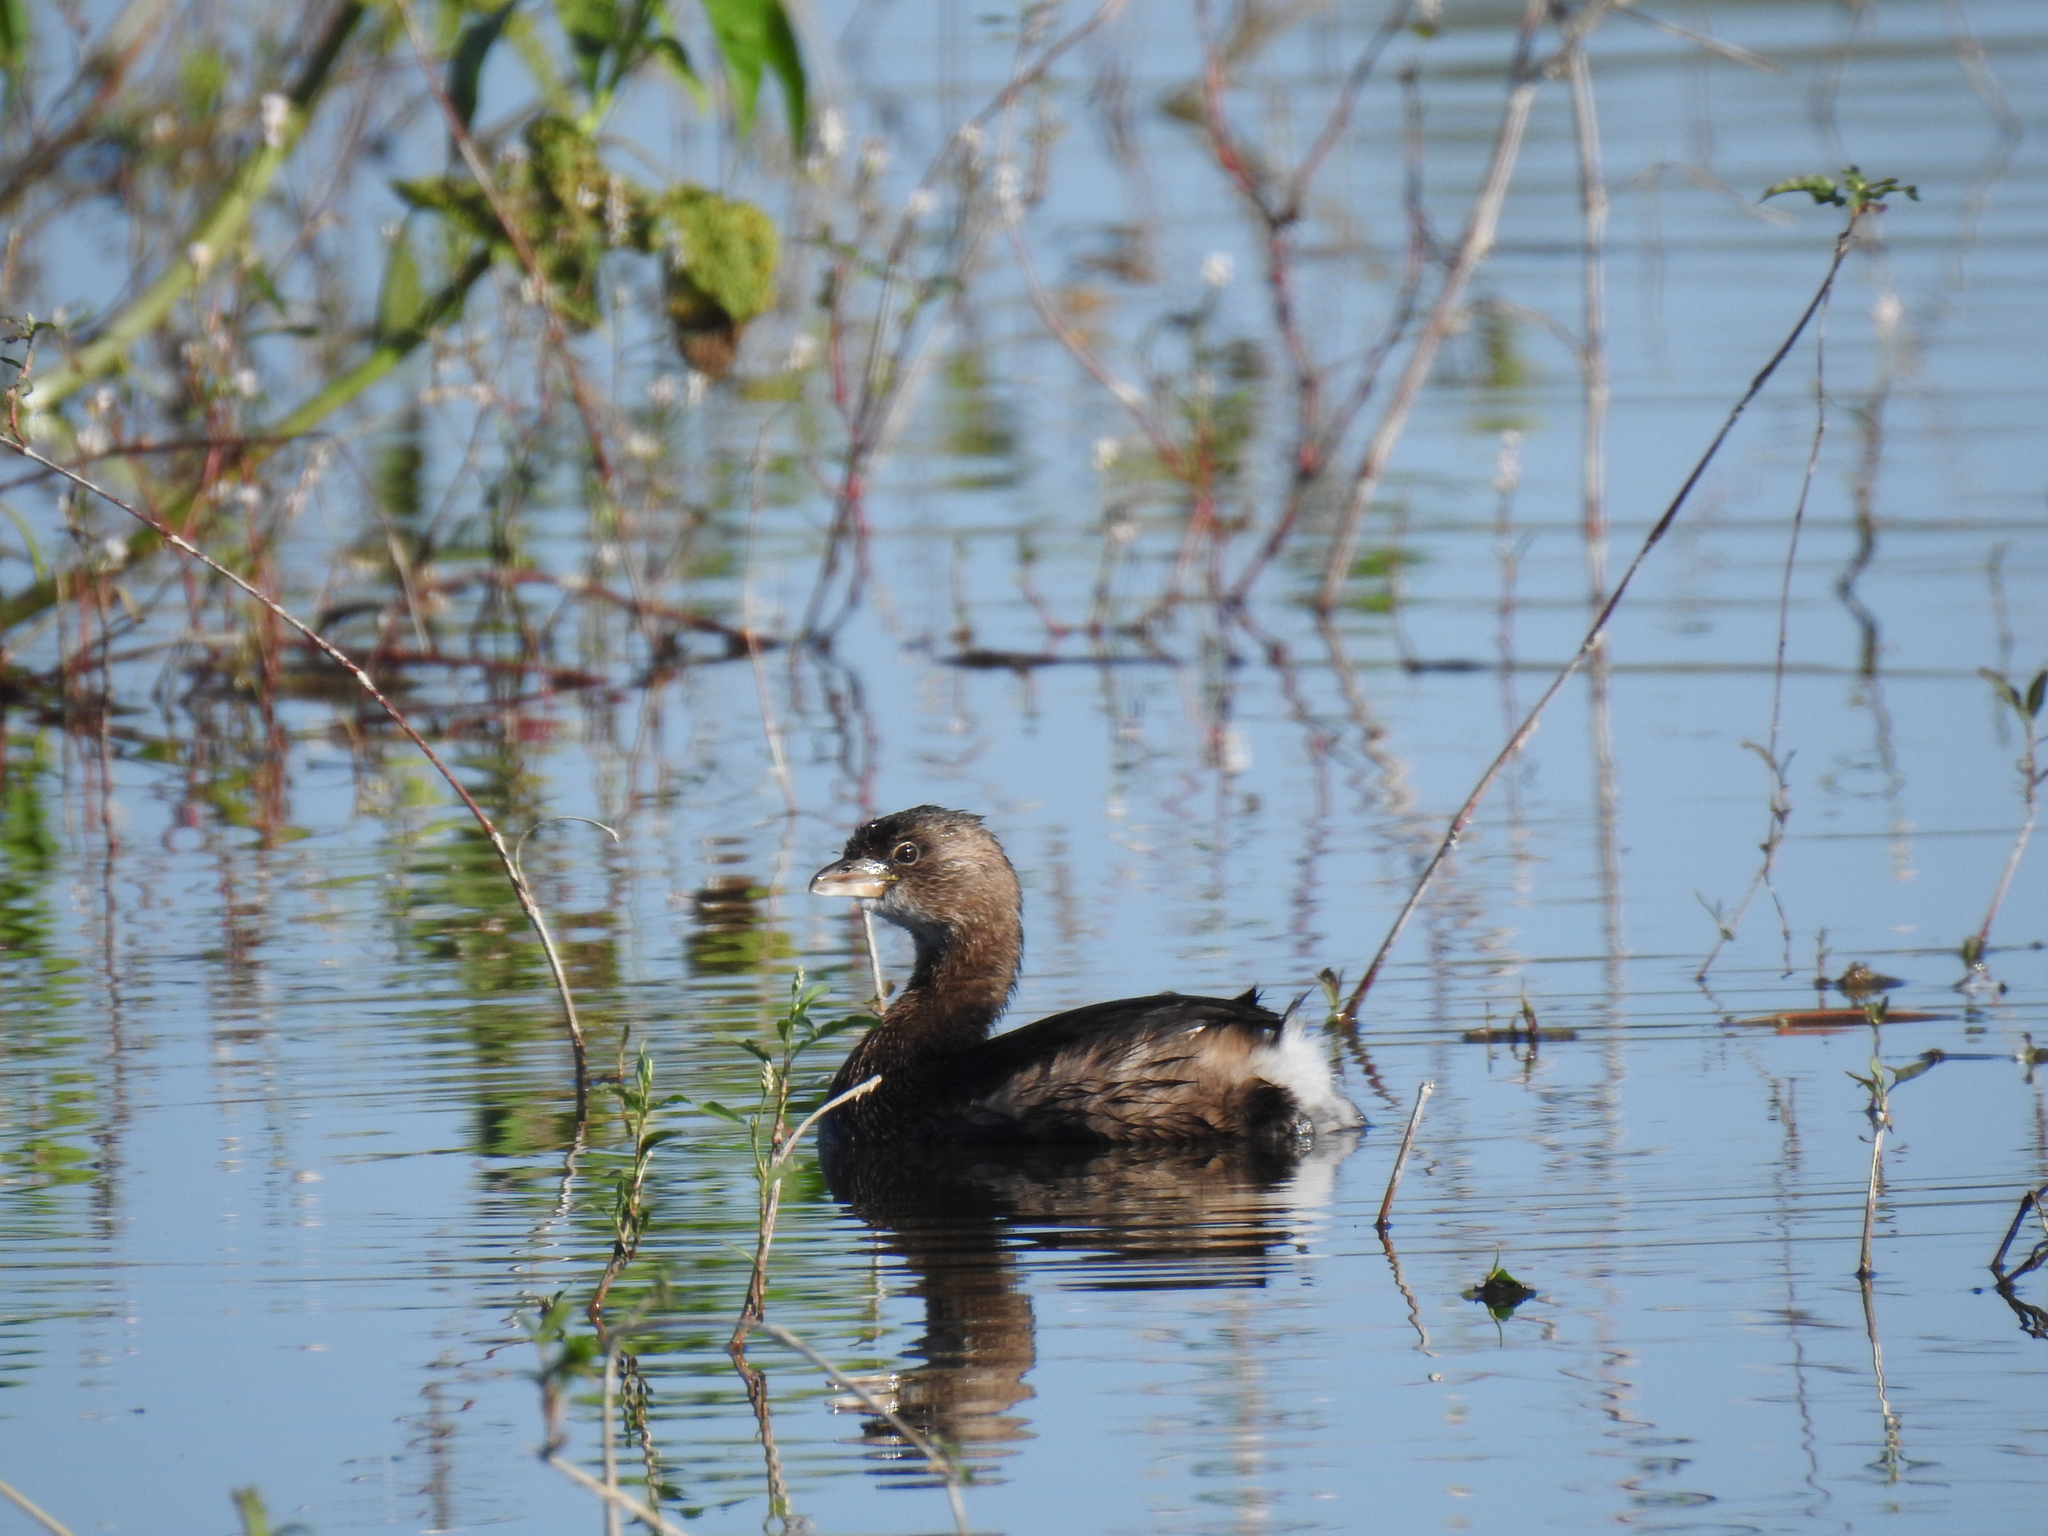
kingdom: Animalia
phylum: Chordata
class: Aves
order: Podicipediformes
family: Podicipedidae
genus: Podilymbus
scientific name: Podilymbus podiceps
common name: Pied-billed grebe
